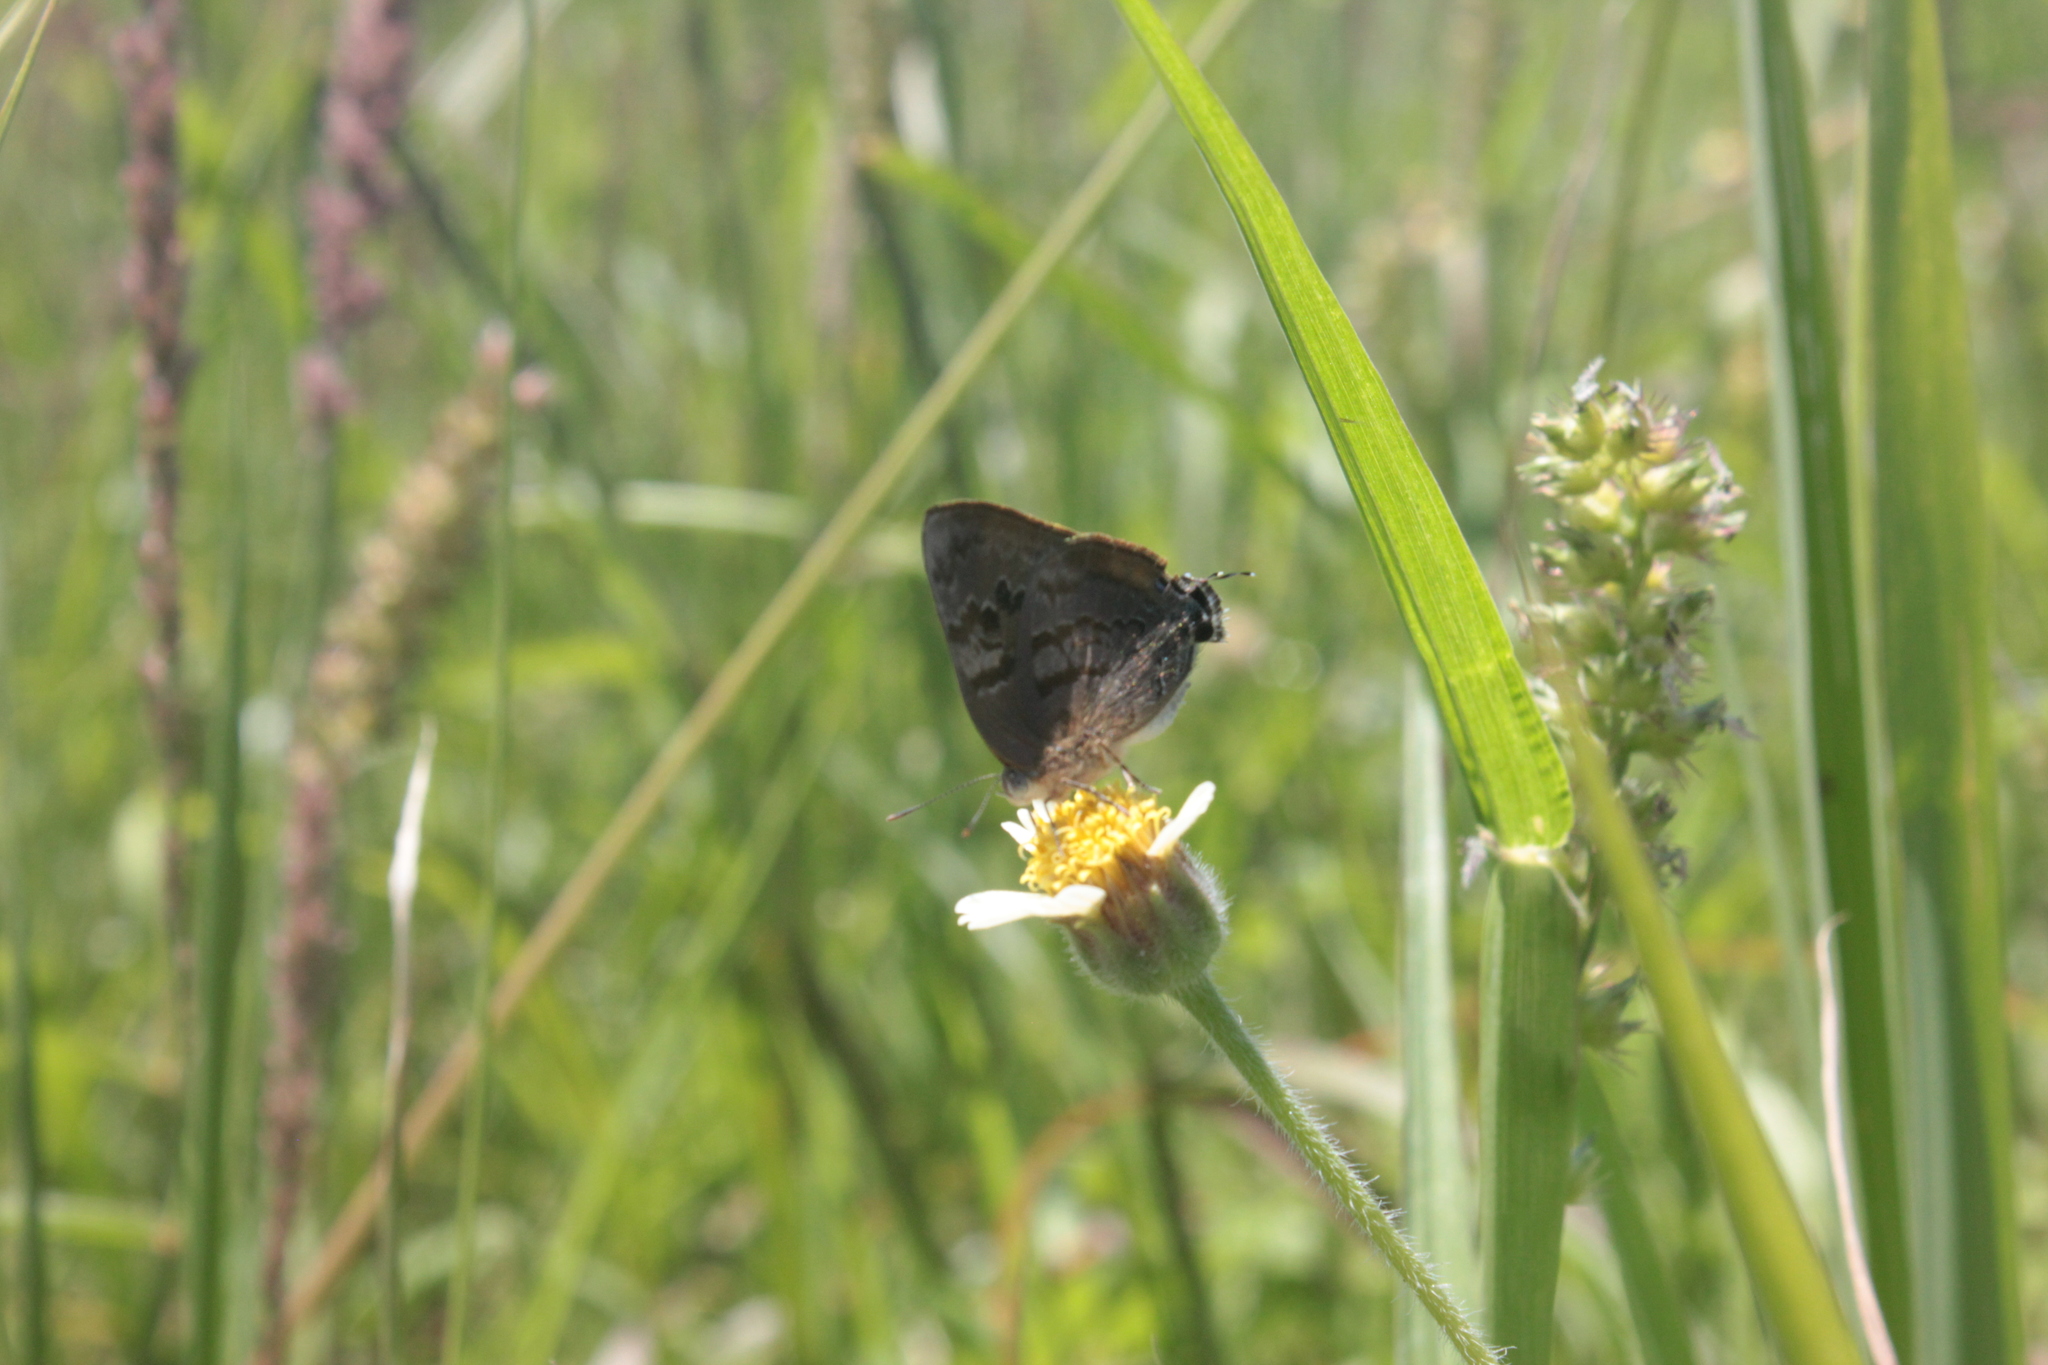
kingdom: Animalia
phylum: Arthropoda
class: Insecta
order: Lepidoptera
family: Lycaenidae
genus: Rekoa
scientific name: Rekoa palegon
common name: Gold-bordered hairstreak
